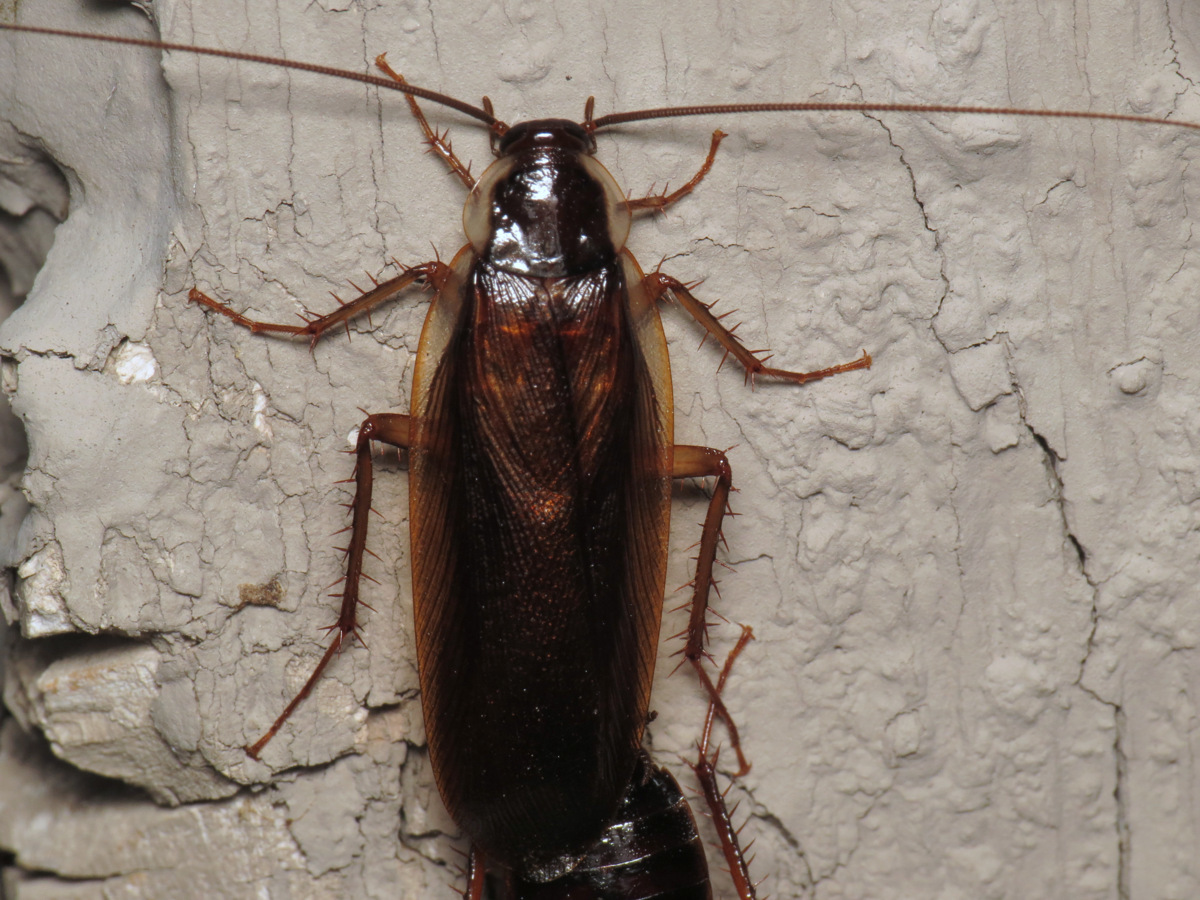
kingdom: Animalia
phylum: Arthropoda
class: Insecta
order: Blattodea
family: Ectobiidae
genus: Parcoblatta
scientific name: Parcoblatta pennsylvanica
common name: Pennsylvanian wood cockroach
